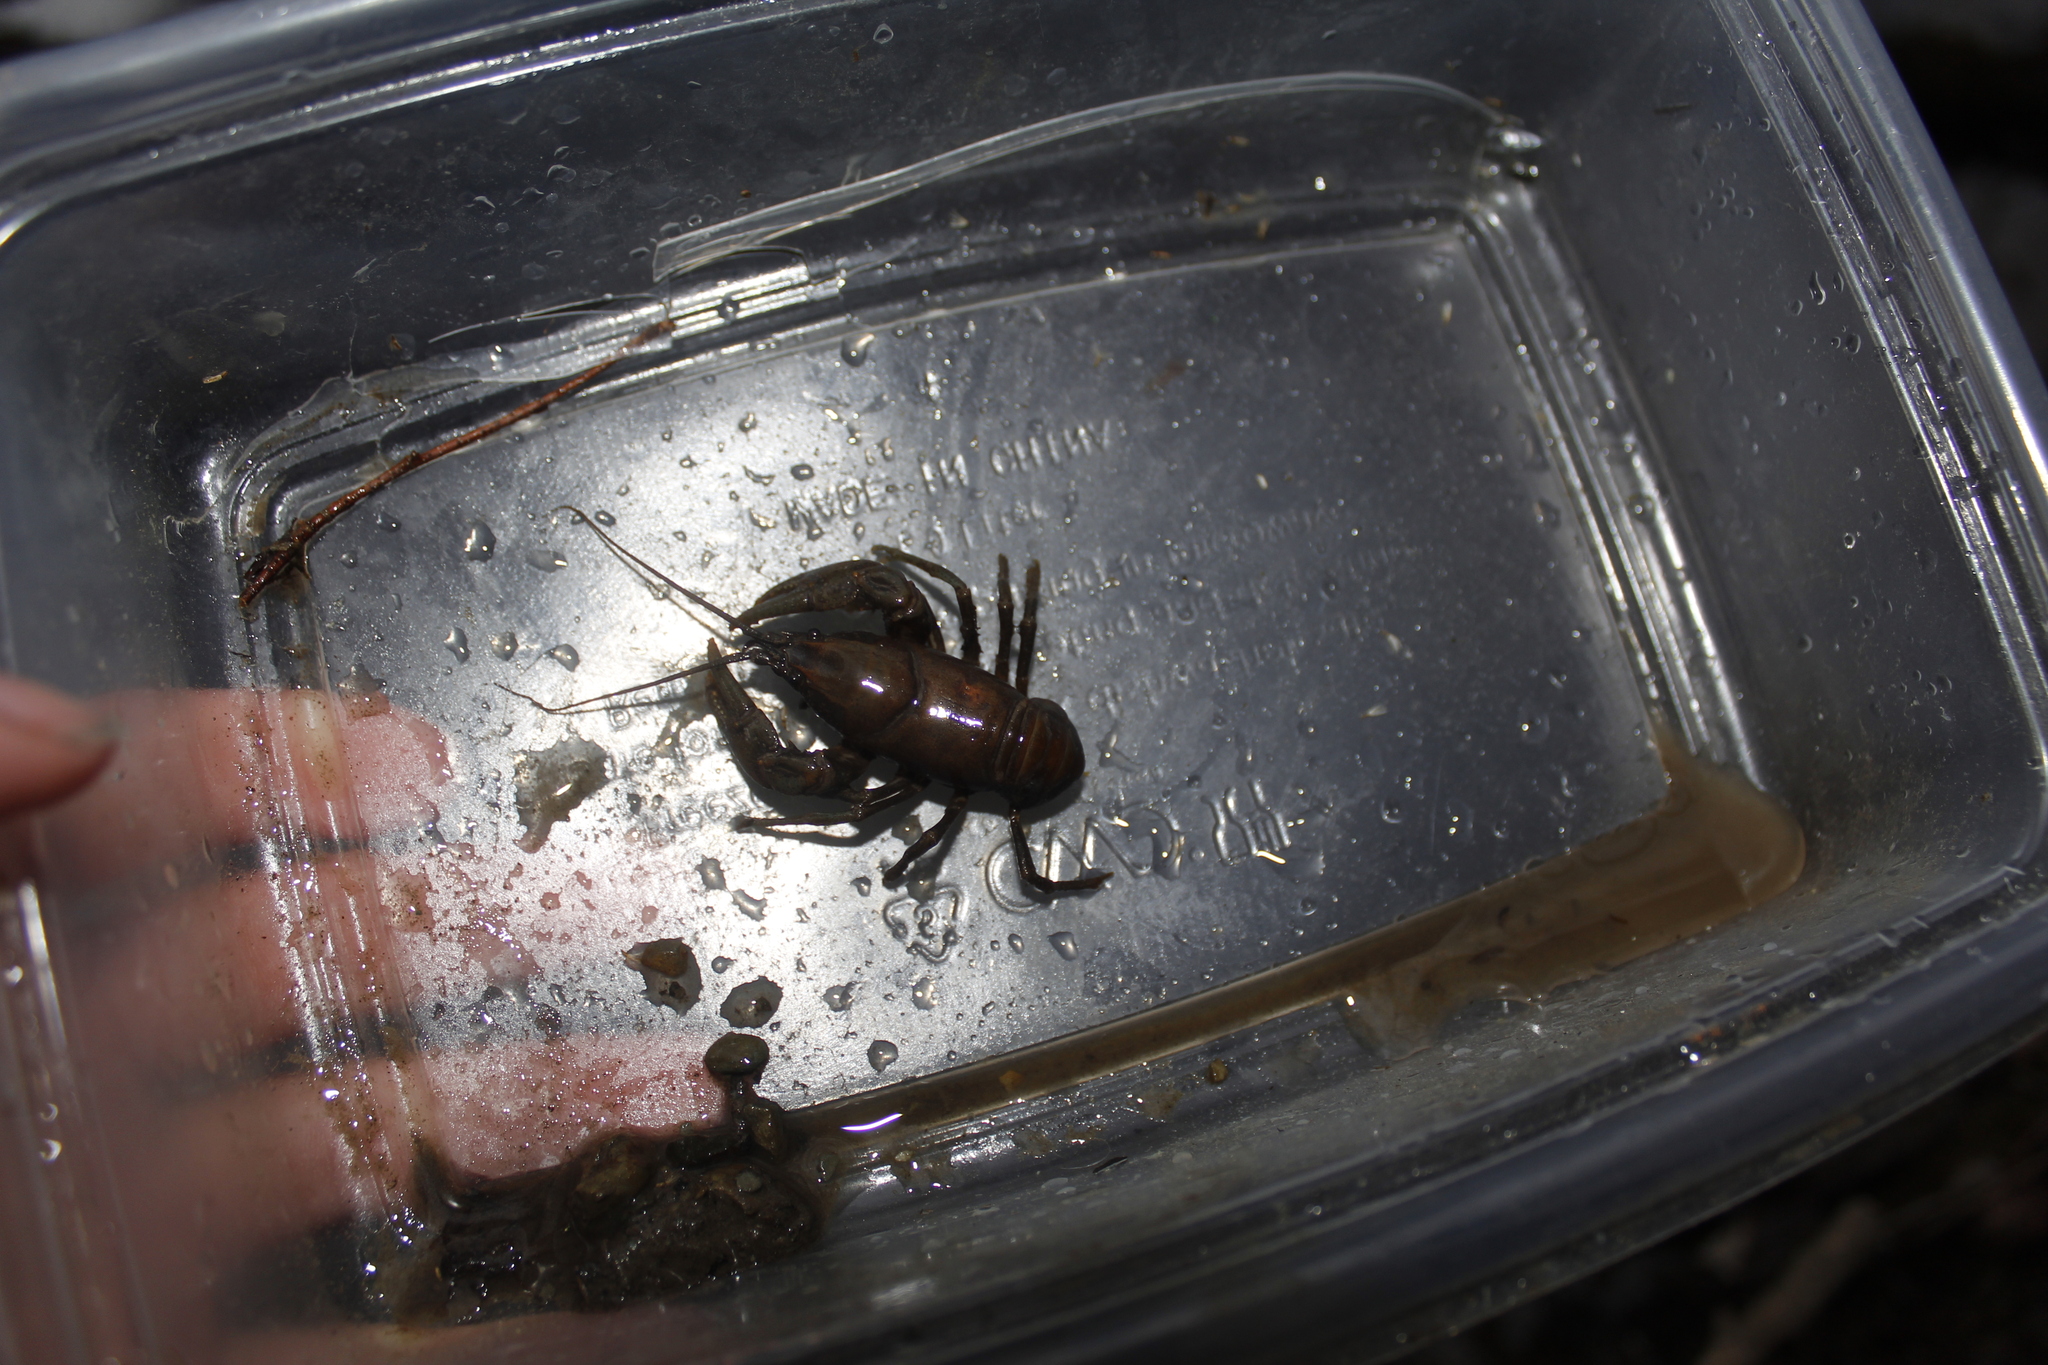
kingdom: Animalia
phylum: Arthropoda
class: Malacostraca
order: Decapoda
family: Cambaridae
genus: Cambarus
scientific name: Cambarus bartonii
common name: Appalachian brook crayfish
